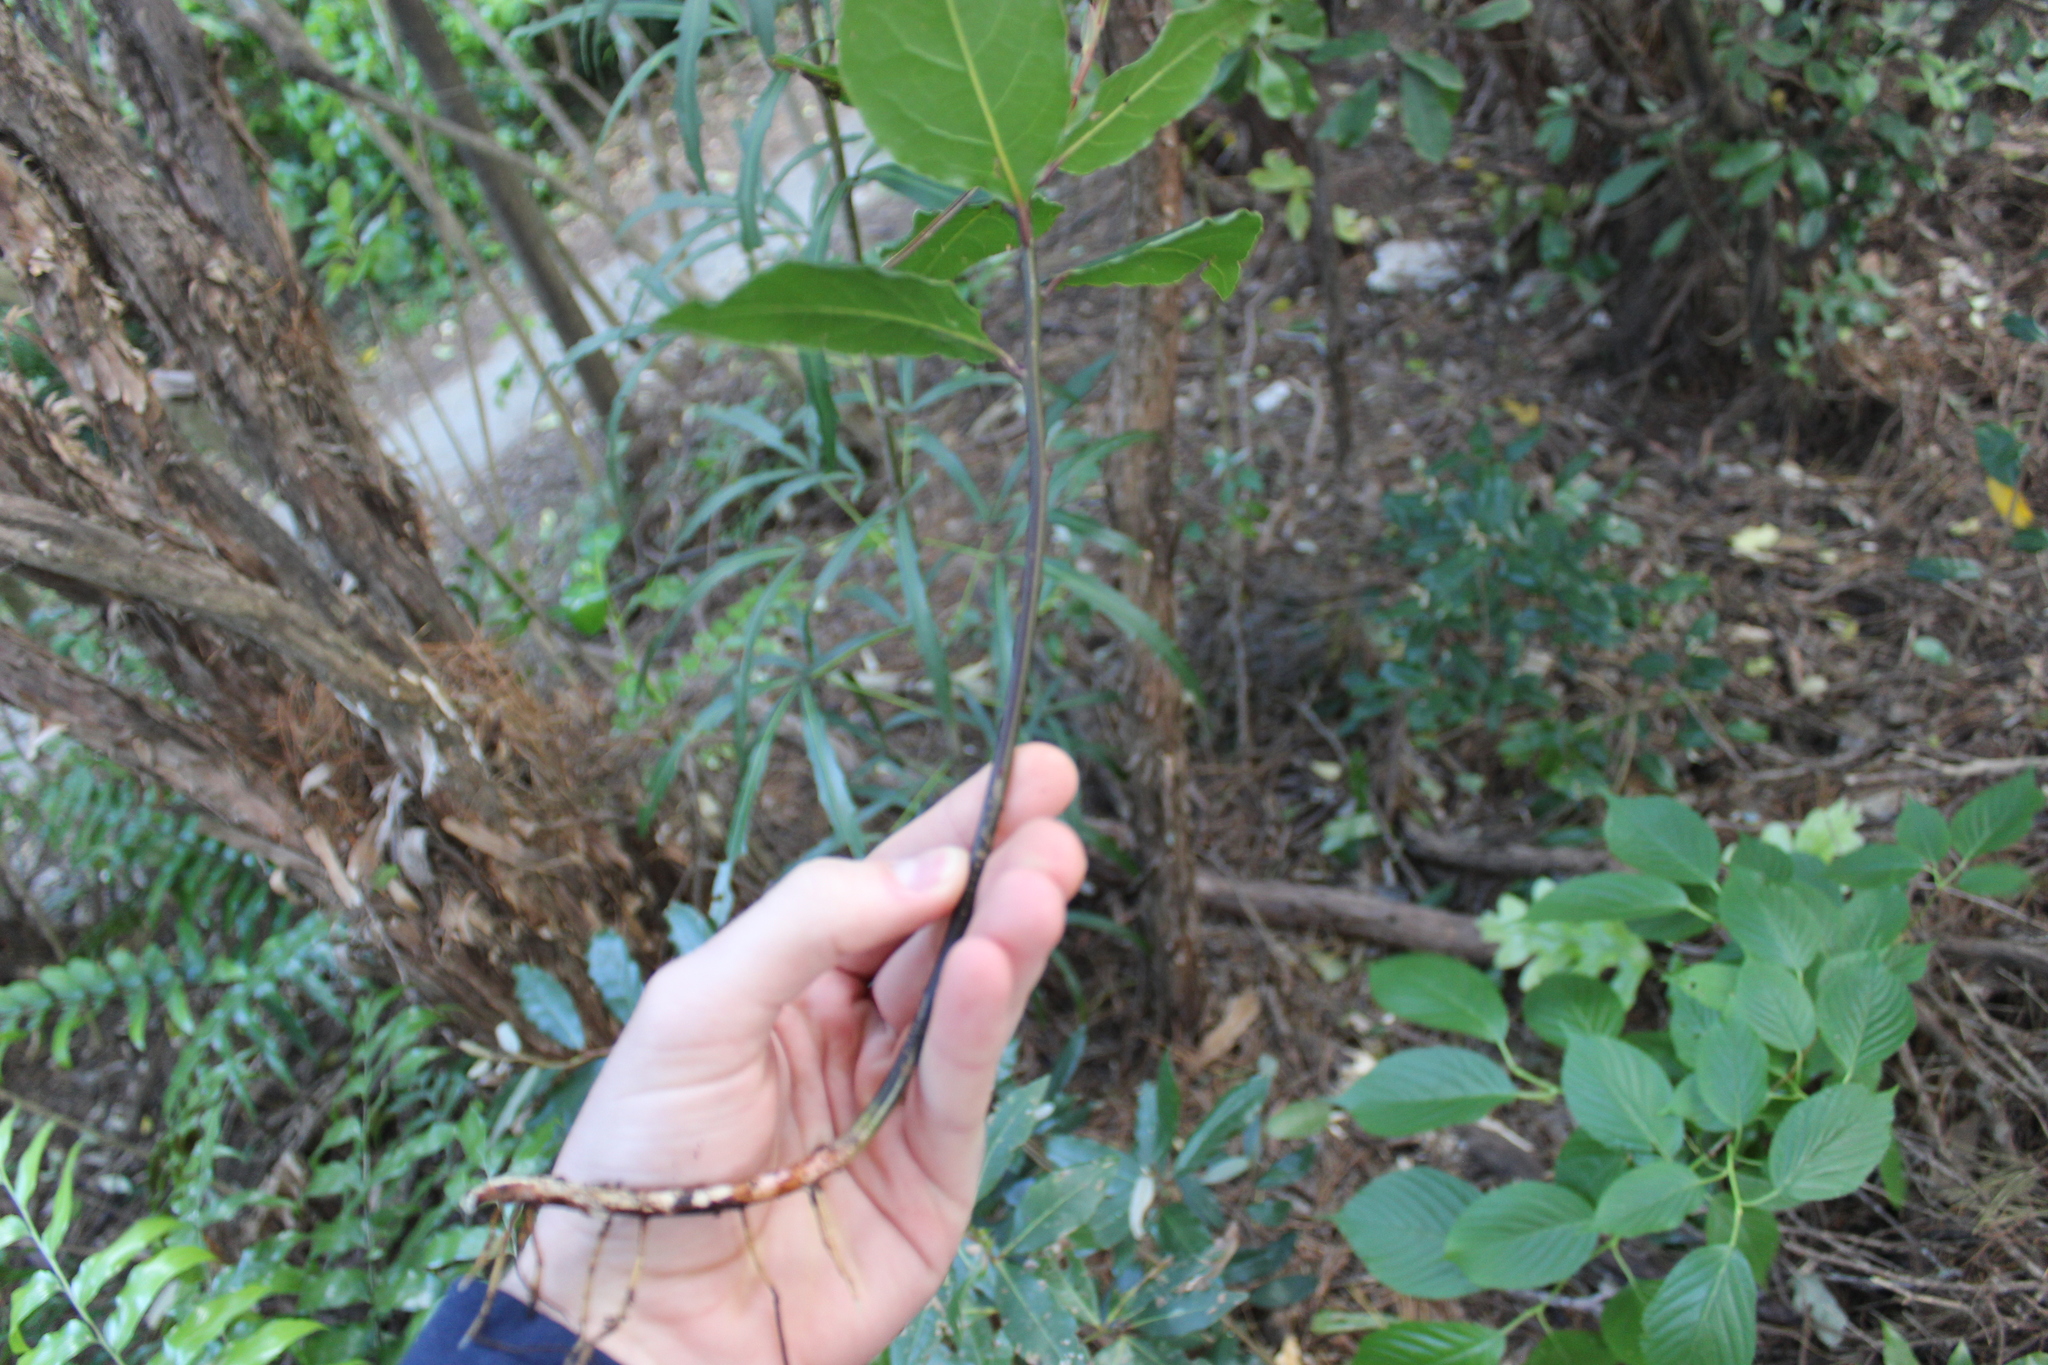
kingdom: Plantae
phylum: Tracheophyta
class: Magnoliopsida
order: Laurales
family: Lauraceae
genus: Laurus
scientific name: Laurus nobilis
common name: Bay
